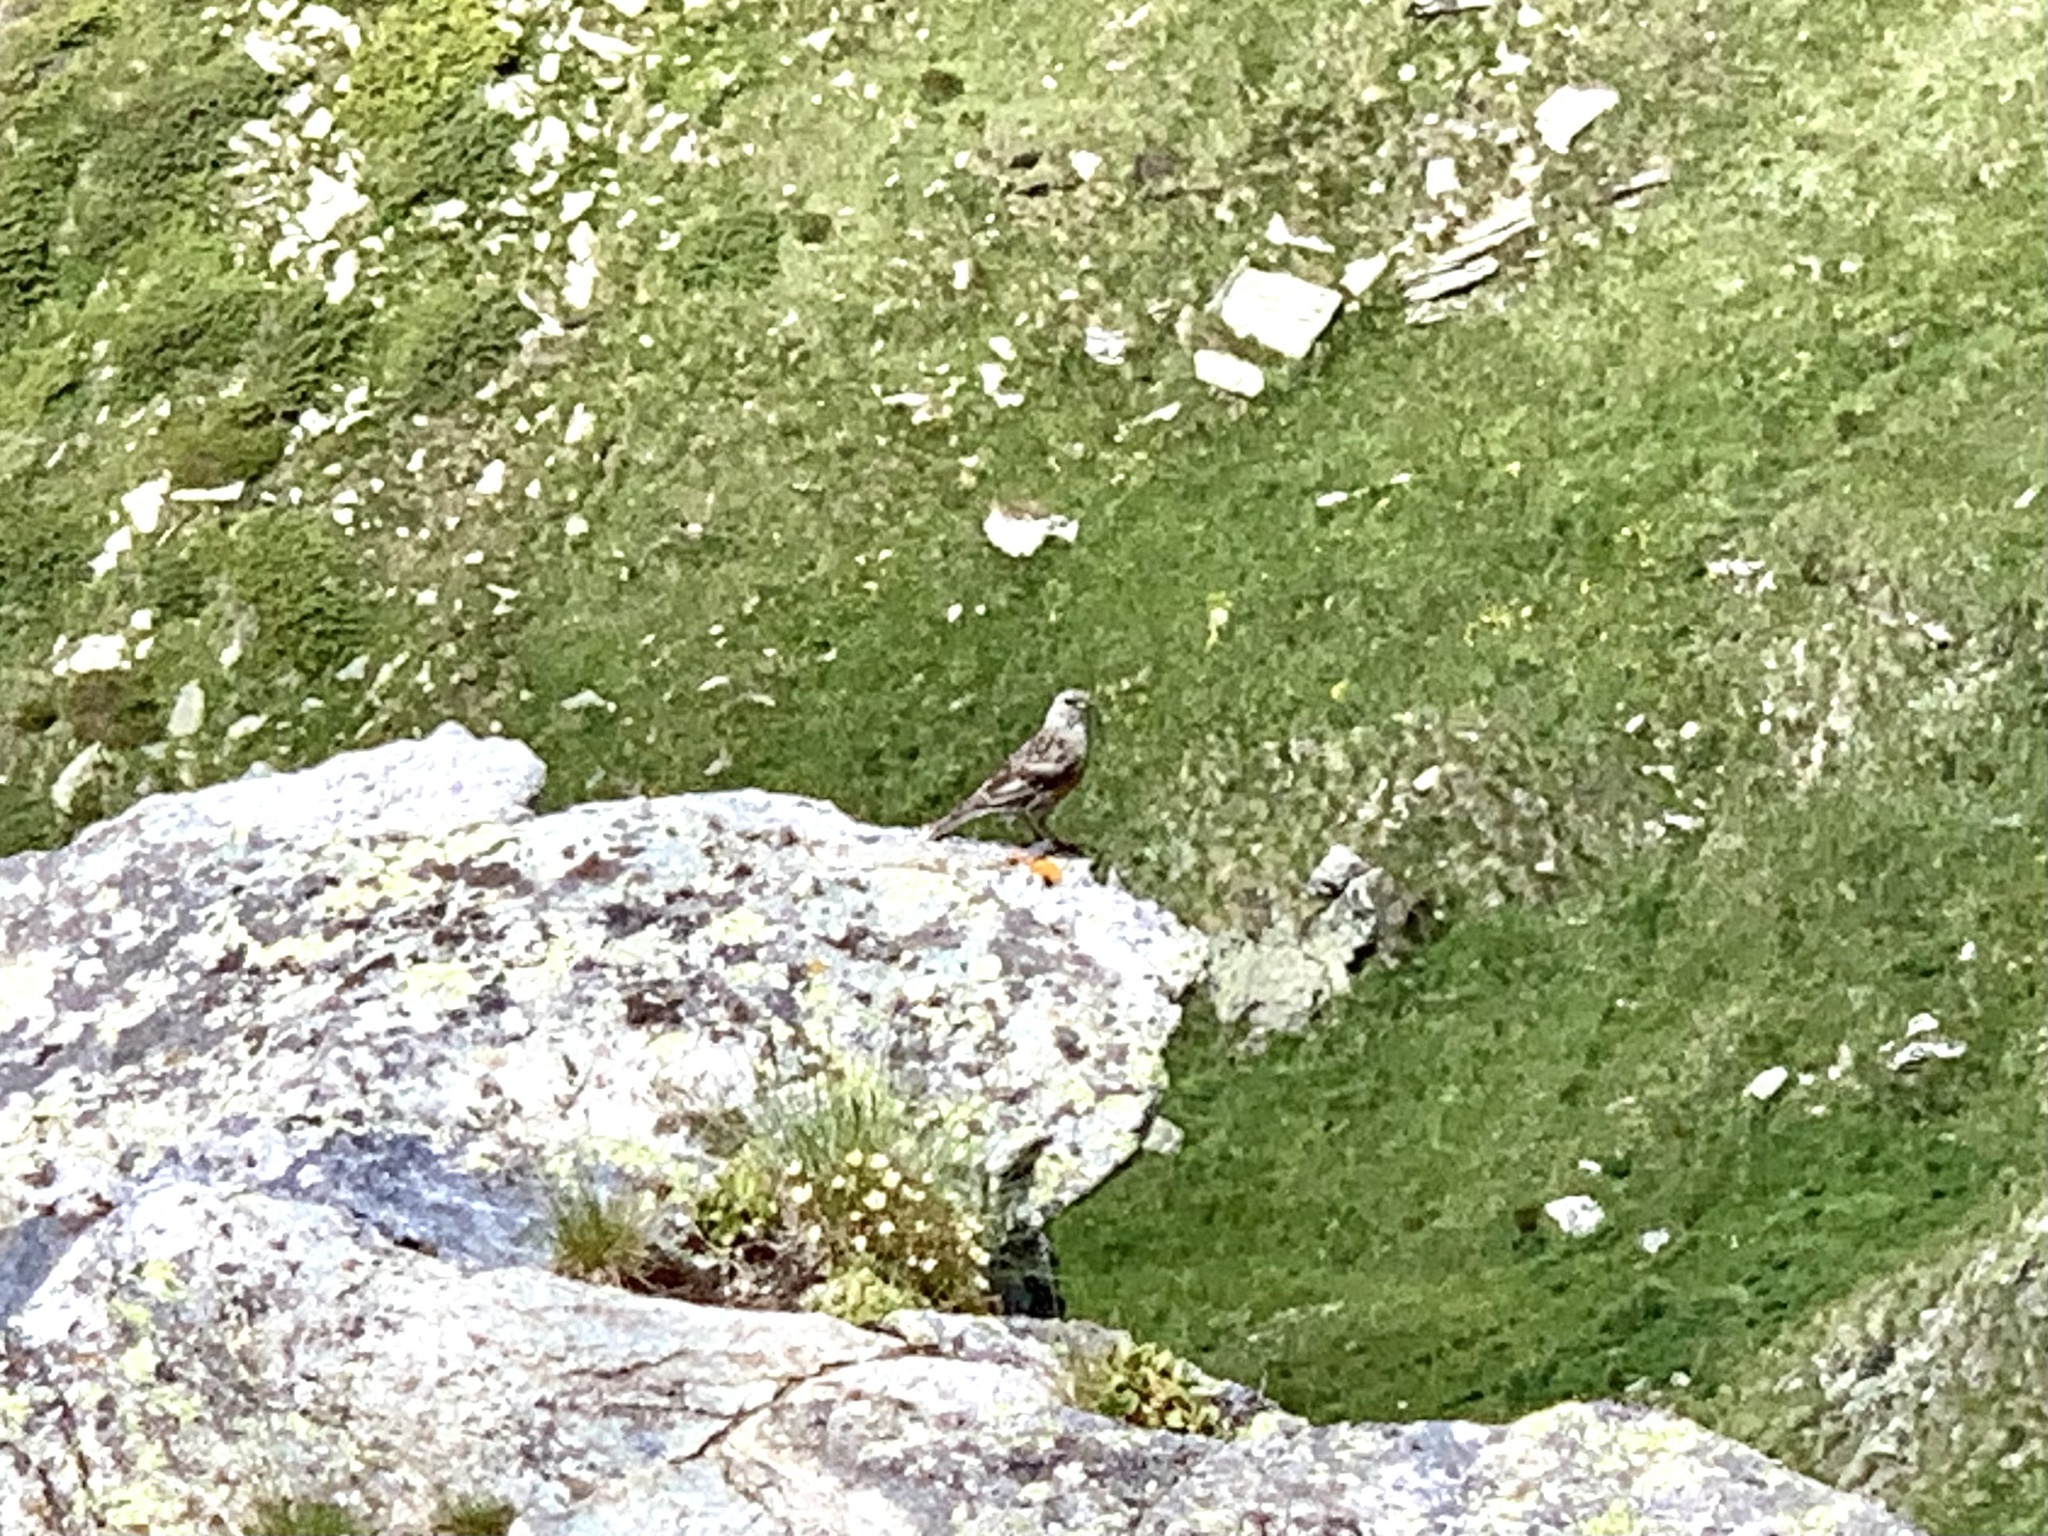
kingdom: Animalia
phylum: Chordata
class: Aves
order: Passeriformes
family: Prunellidae
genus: Prunella
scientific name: Prunella collaris
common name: Alpine accentor
